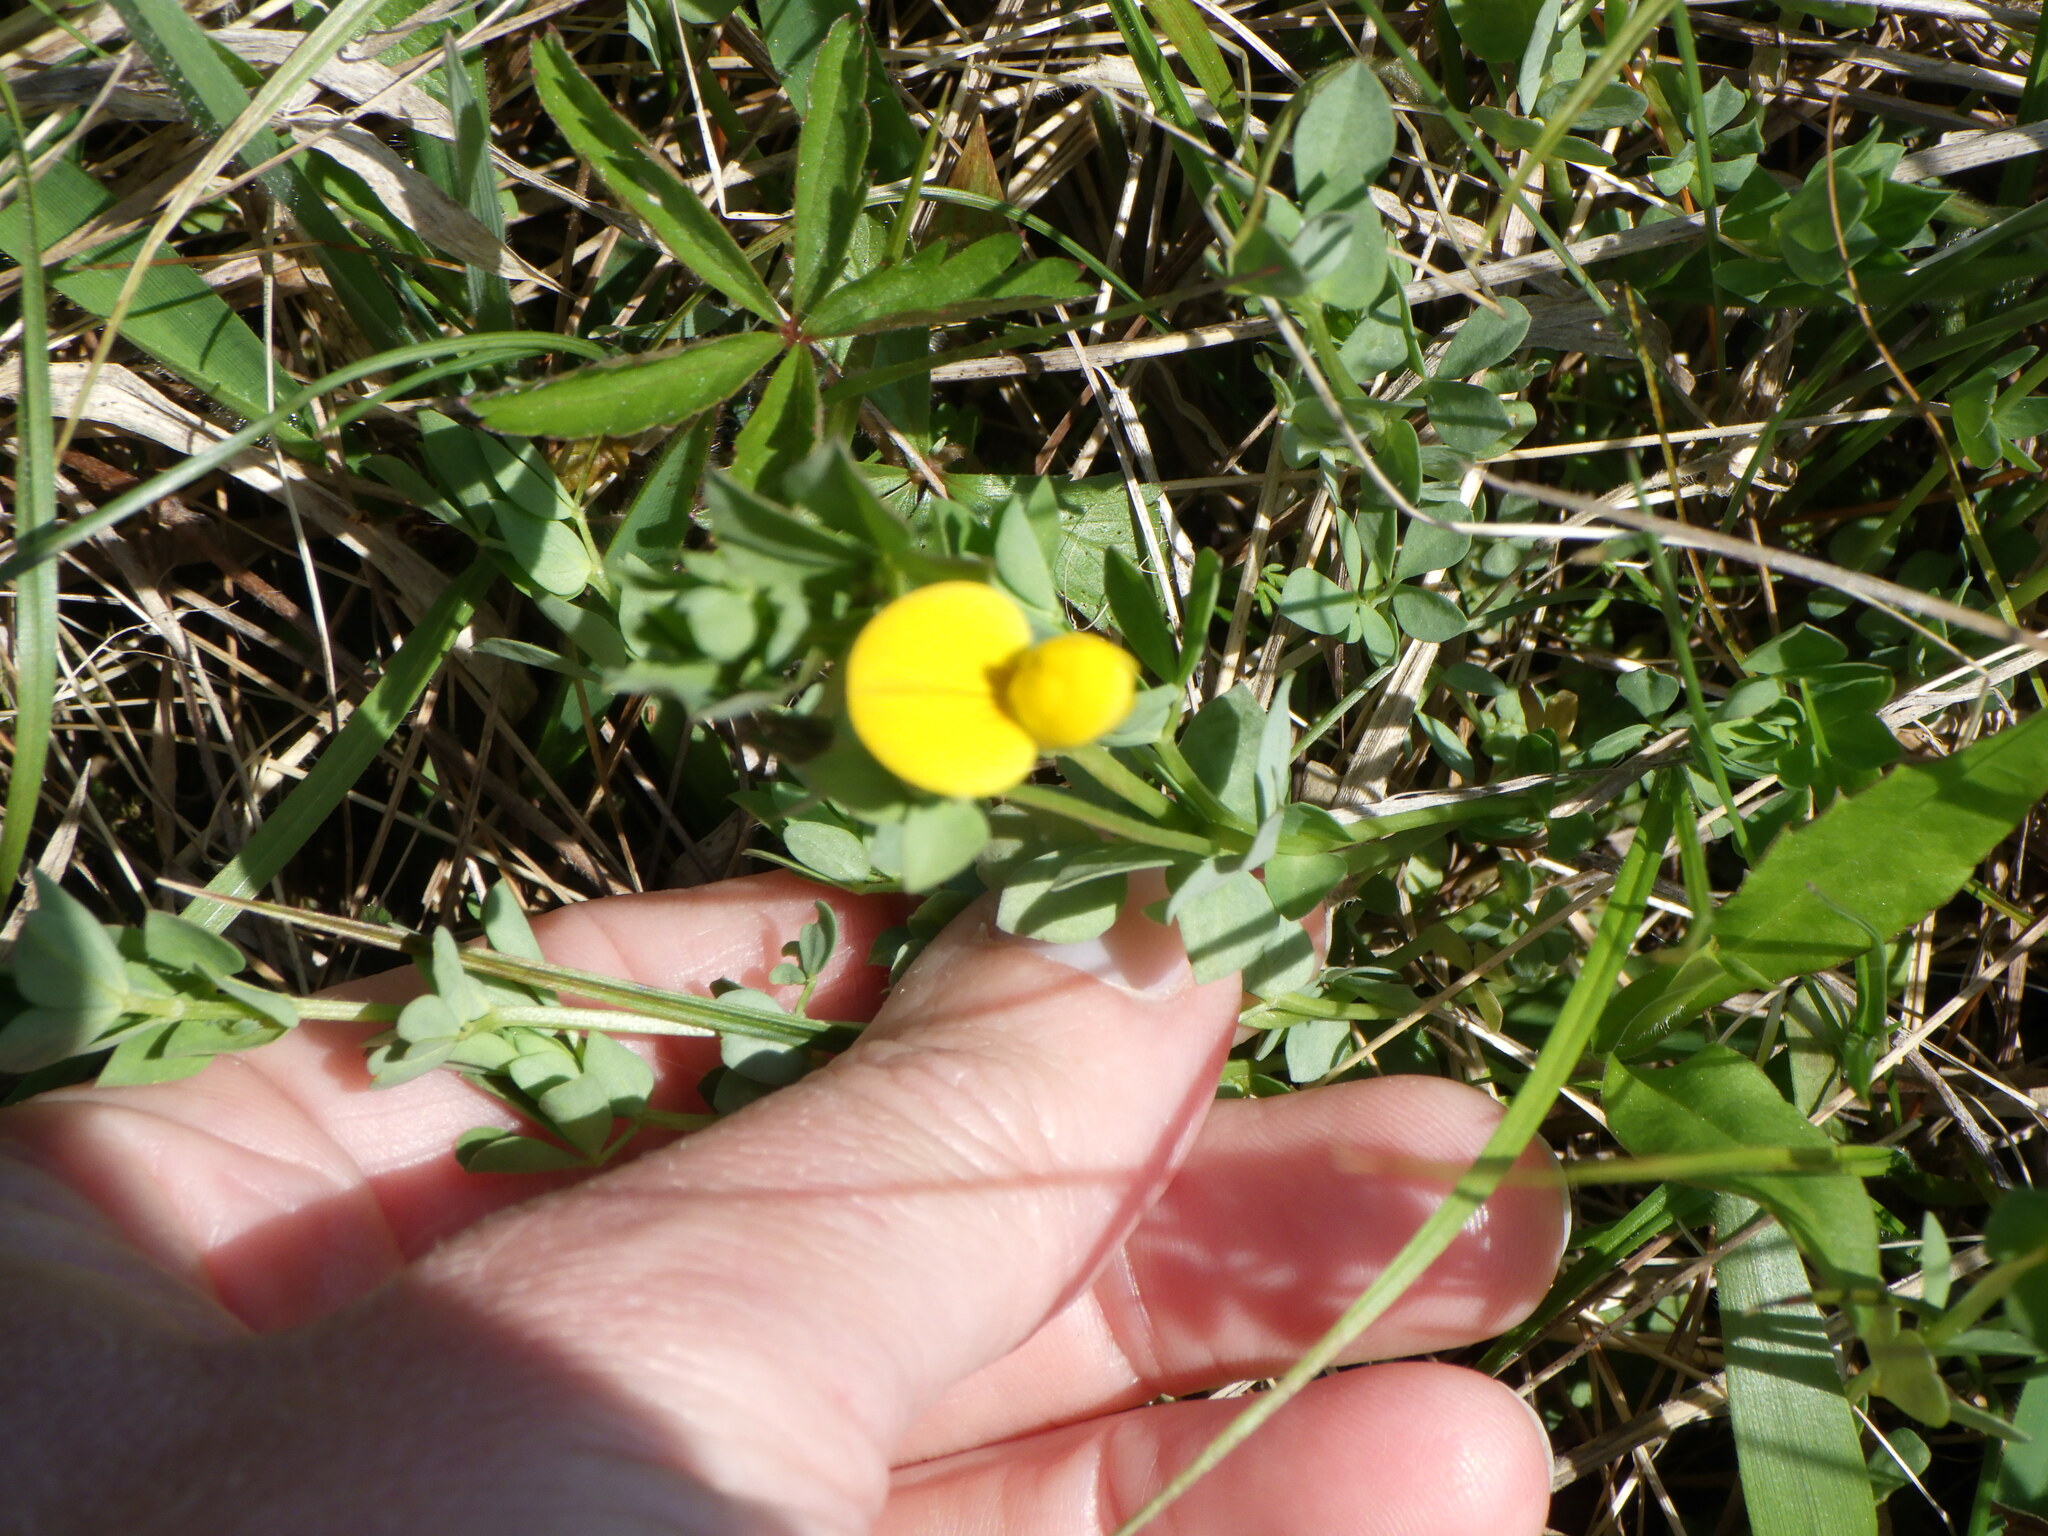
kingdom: Plantae
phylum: Tracheophyta
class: Magnoliopsida
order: Fabales
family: Fabaceae
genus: Lotus
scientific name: Lotus corniculatus
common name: Common bird's-foot-trefoil
